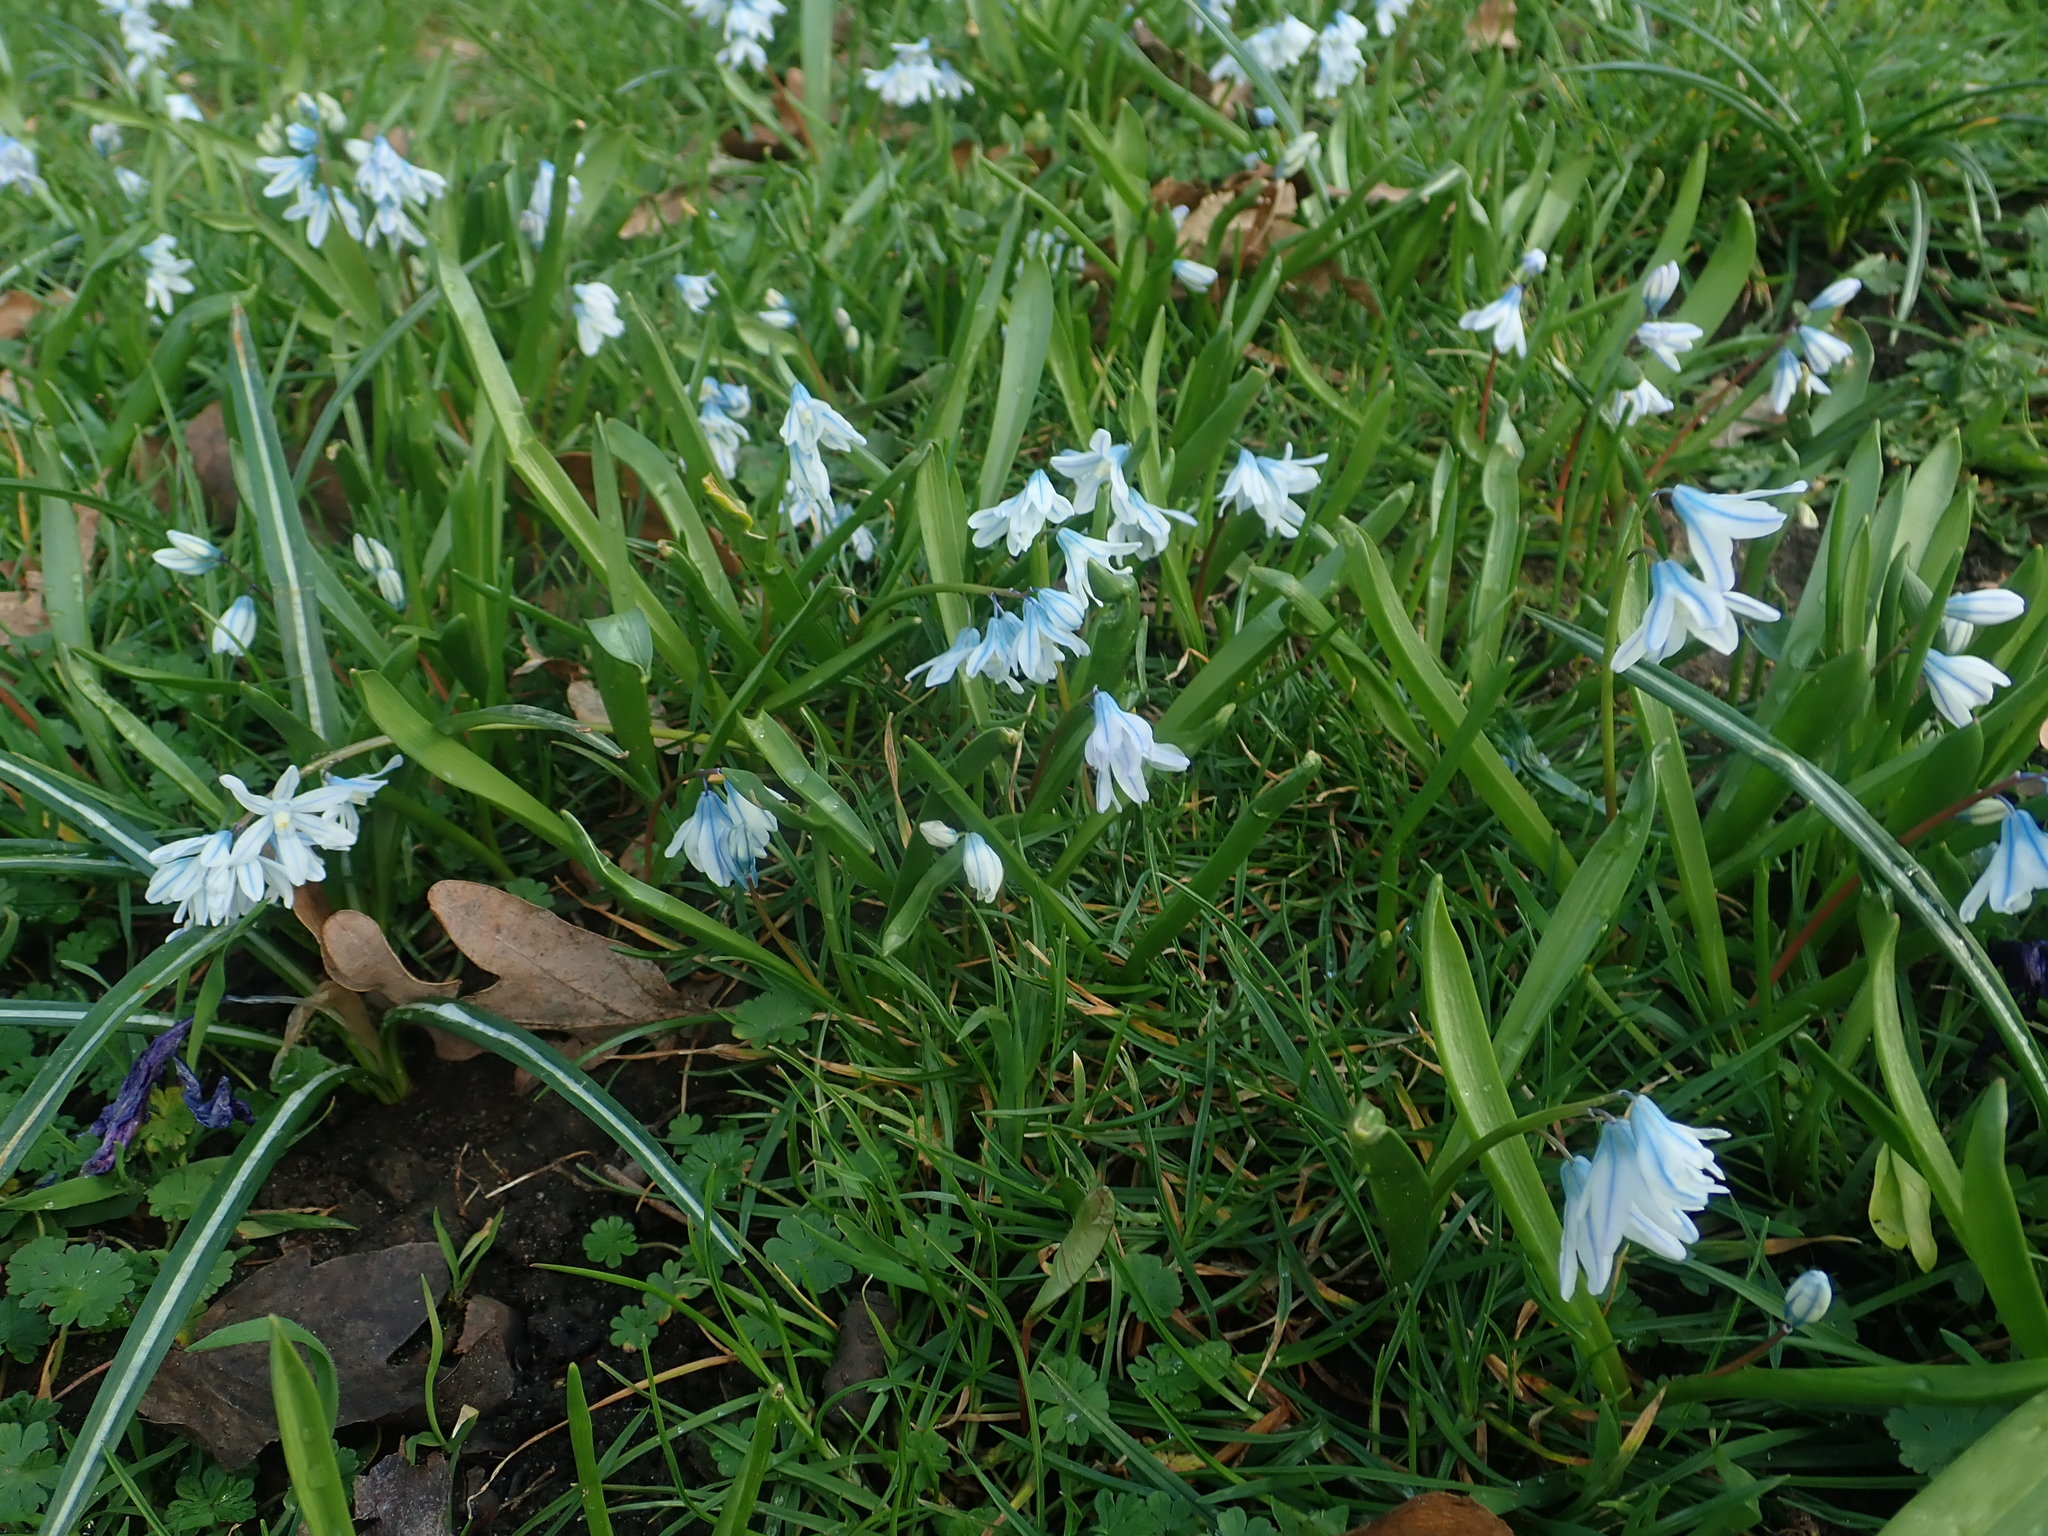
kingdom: Plantae
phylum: Tracheophyta
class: Liliopsida
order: Asparagales
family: Asparagaceae
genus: Puschkinia
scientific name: Puschkinia scilloides
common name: Striped squill
